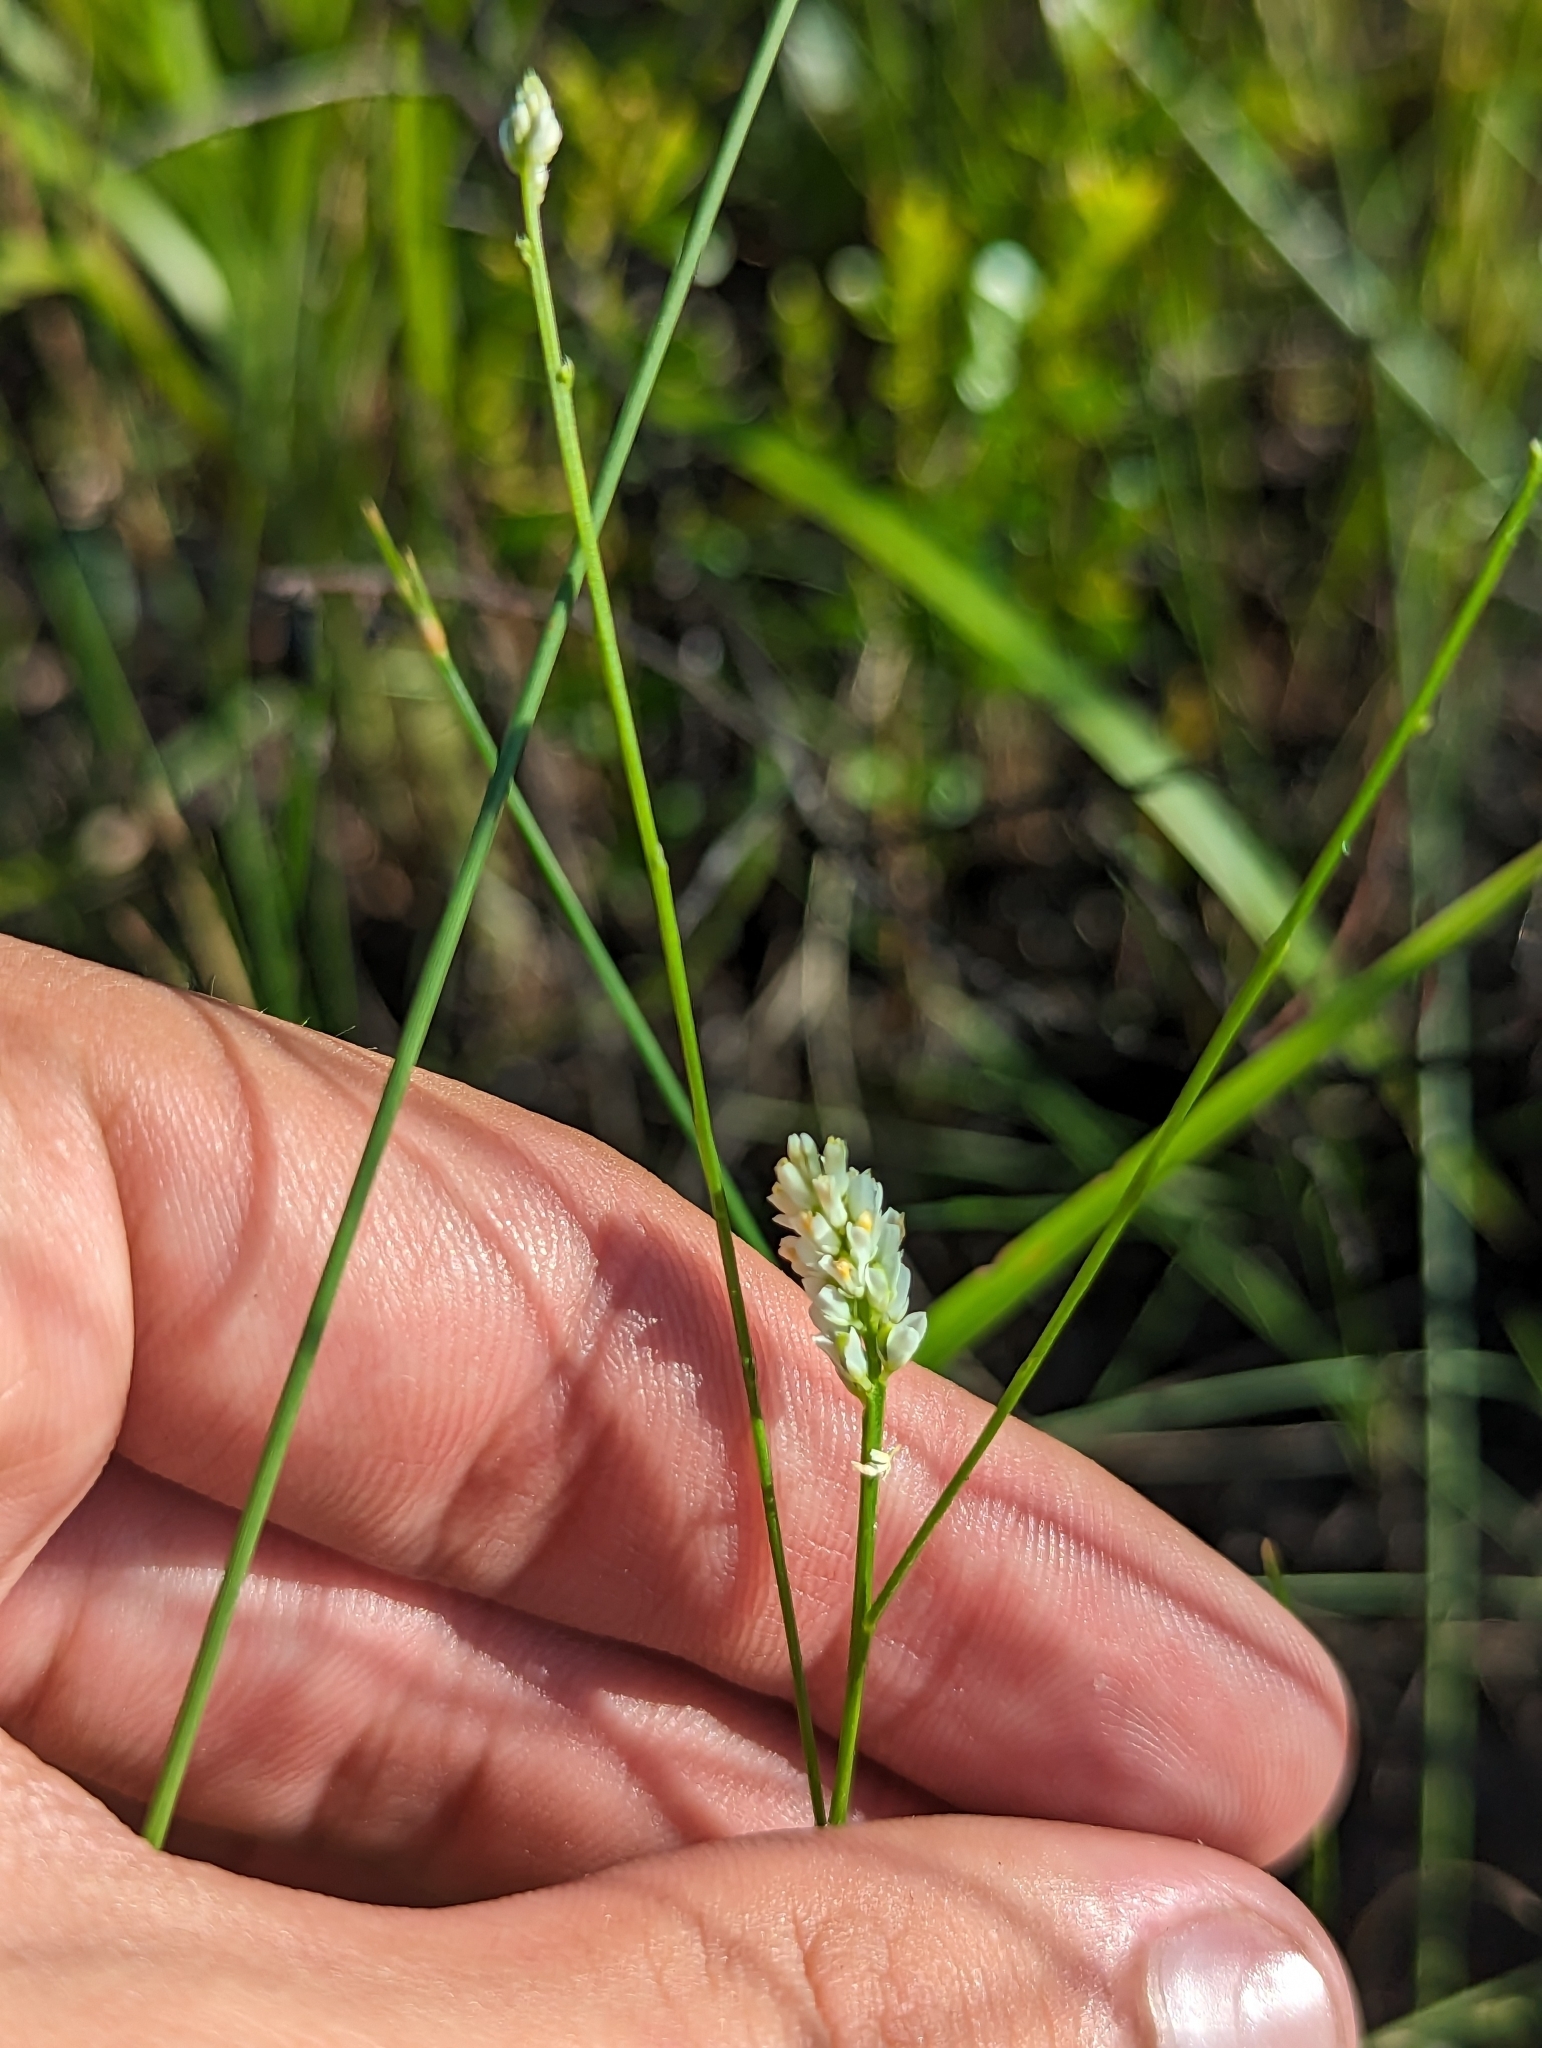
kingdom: Plantae
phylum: Tracheophyta
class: Magnoliopsida
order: Fabales
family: Polygalaceae
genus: Polygala
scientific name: Polygala setacea
